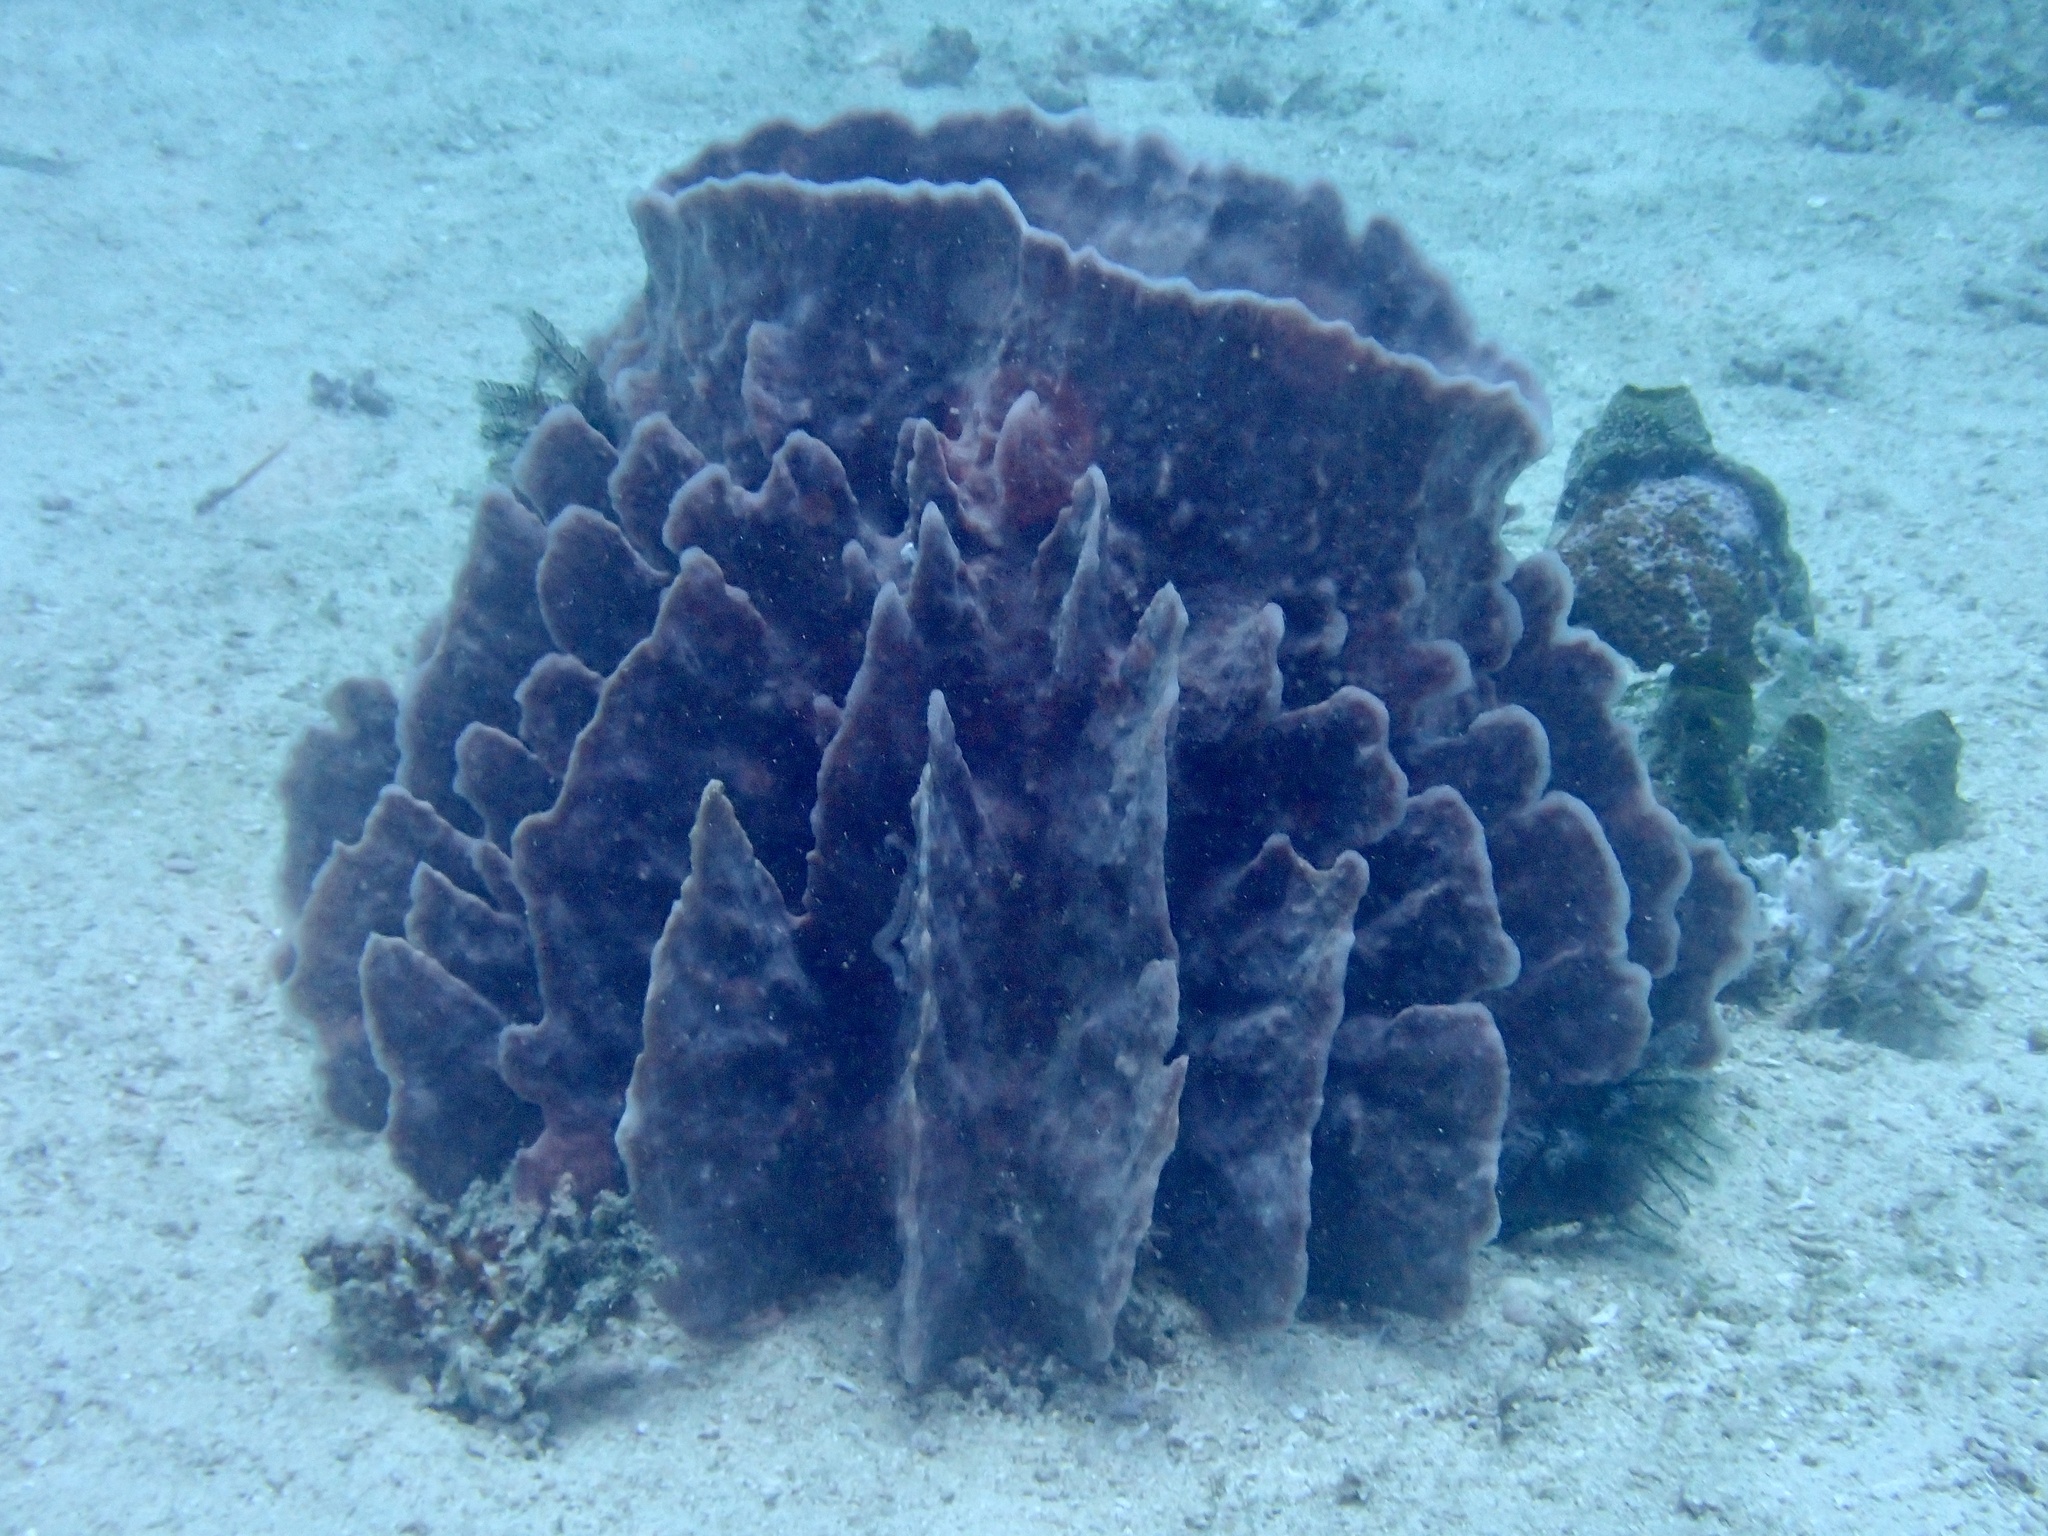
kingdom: Animalia
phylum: Porifera
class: Demospongiae
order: Haplosclerida
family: Petrosiidae
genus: Xestospongia
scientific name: Xestospongia testudinaria
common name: Barrel sponge
